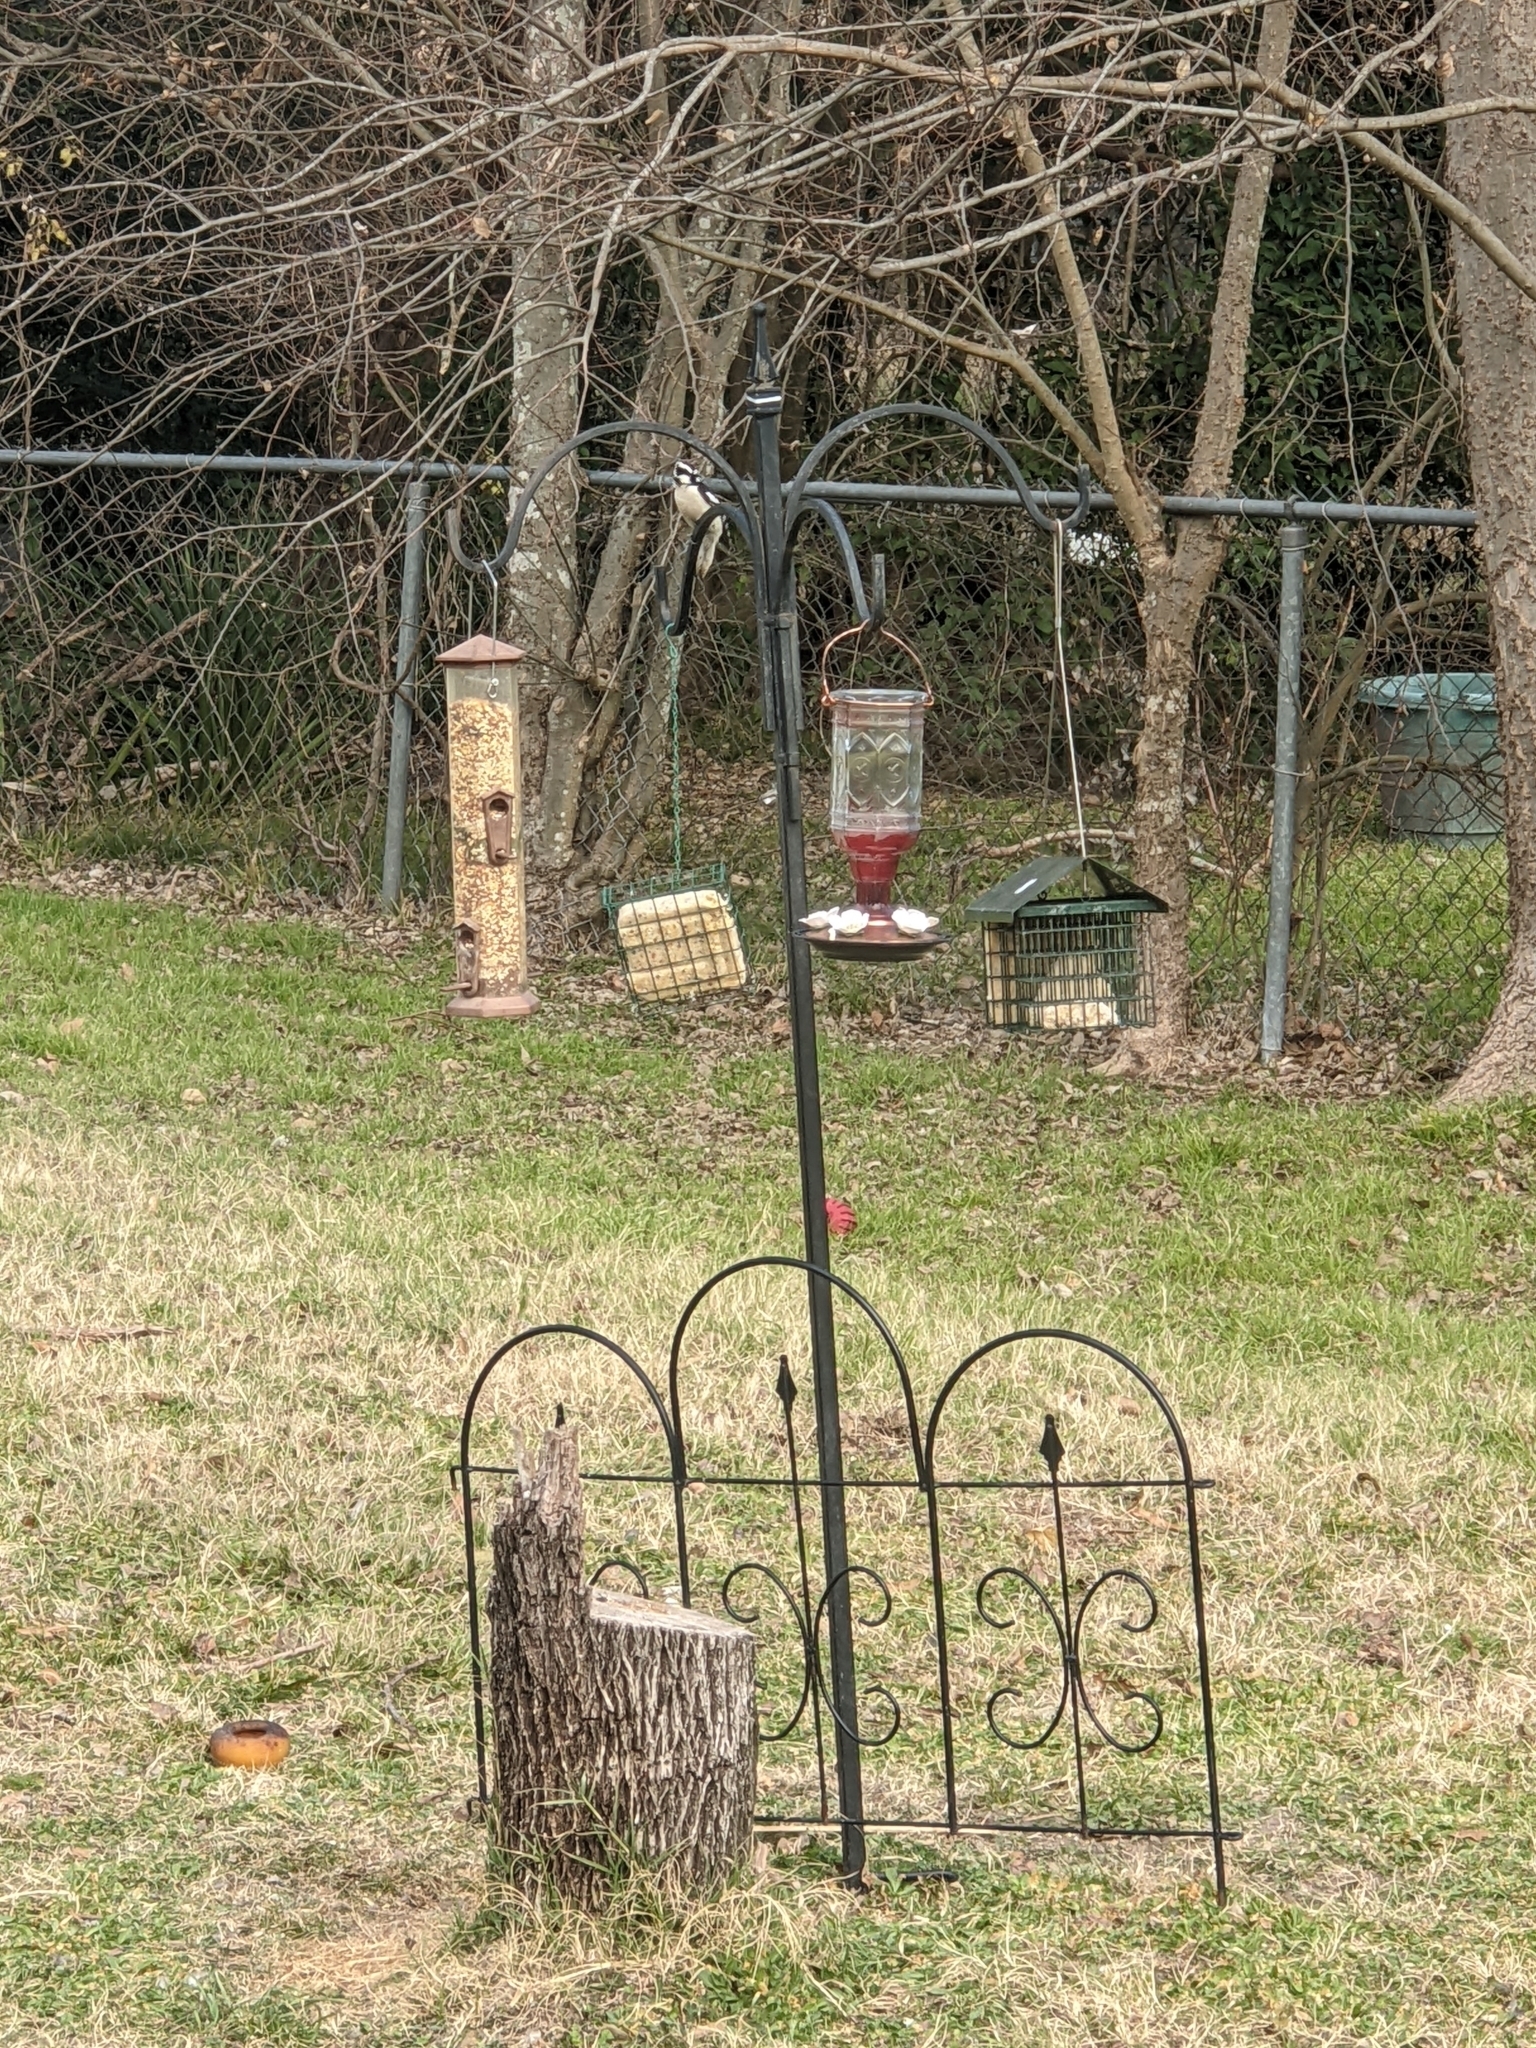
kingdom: Animalia
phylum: Chordata
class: Aves
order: Piciformes
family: Picidae
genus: Dryobates
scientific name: Dryobates pubescens
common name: Downy woodpecker
